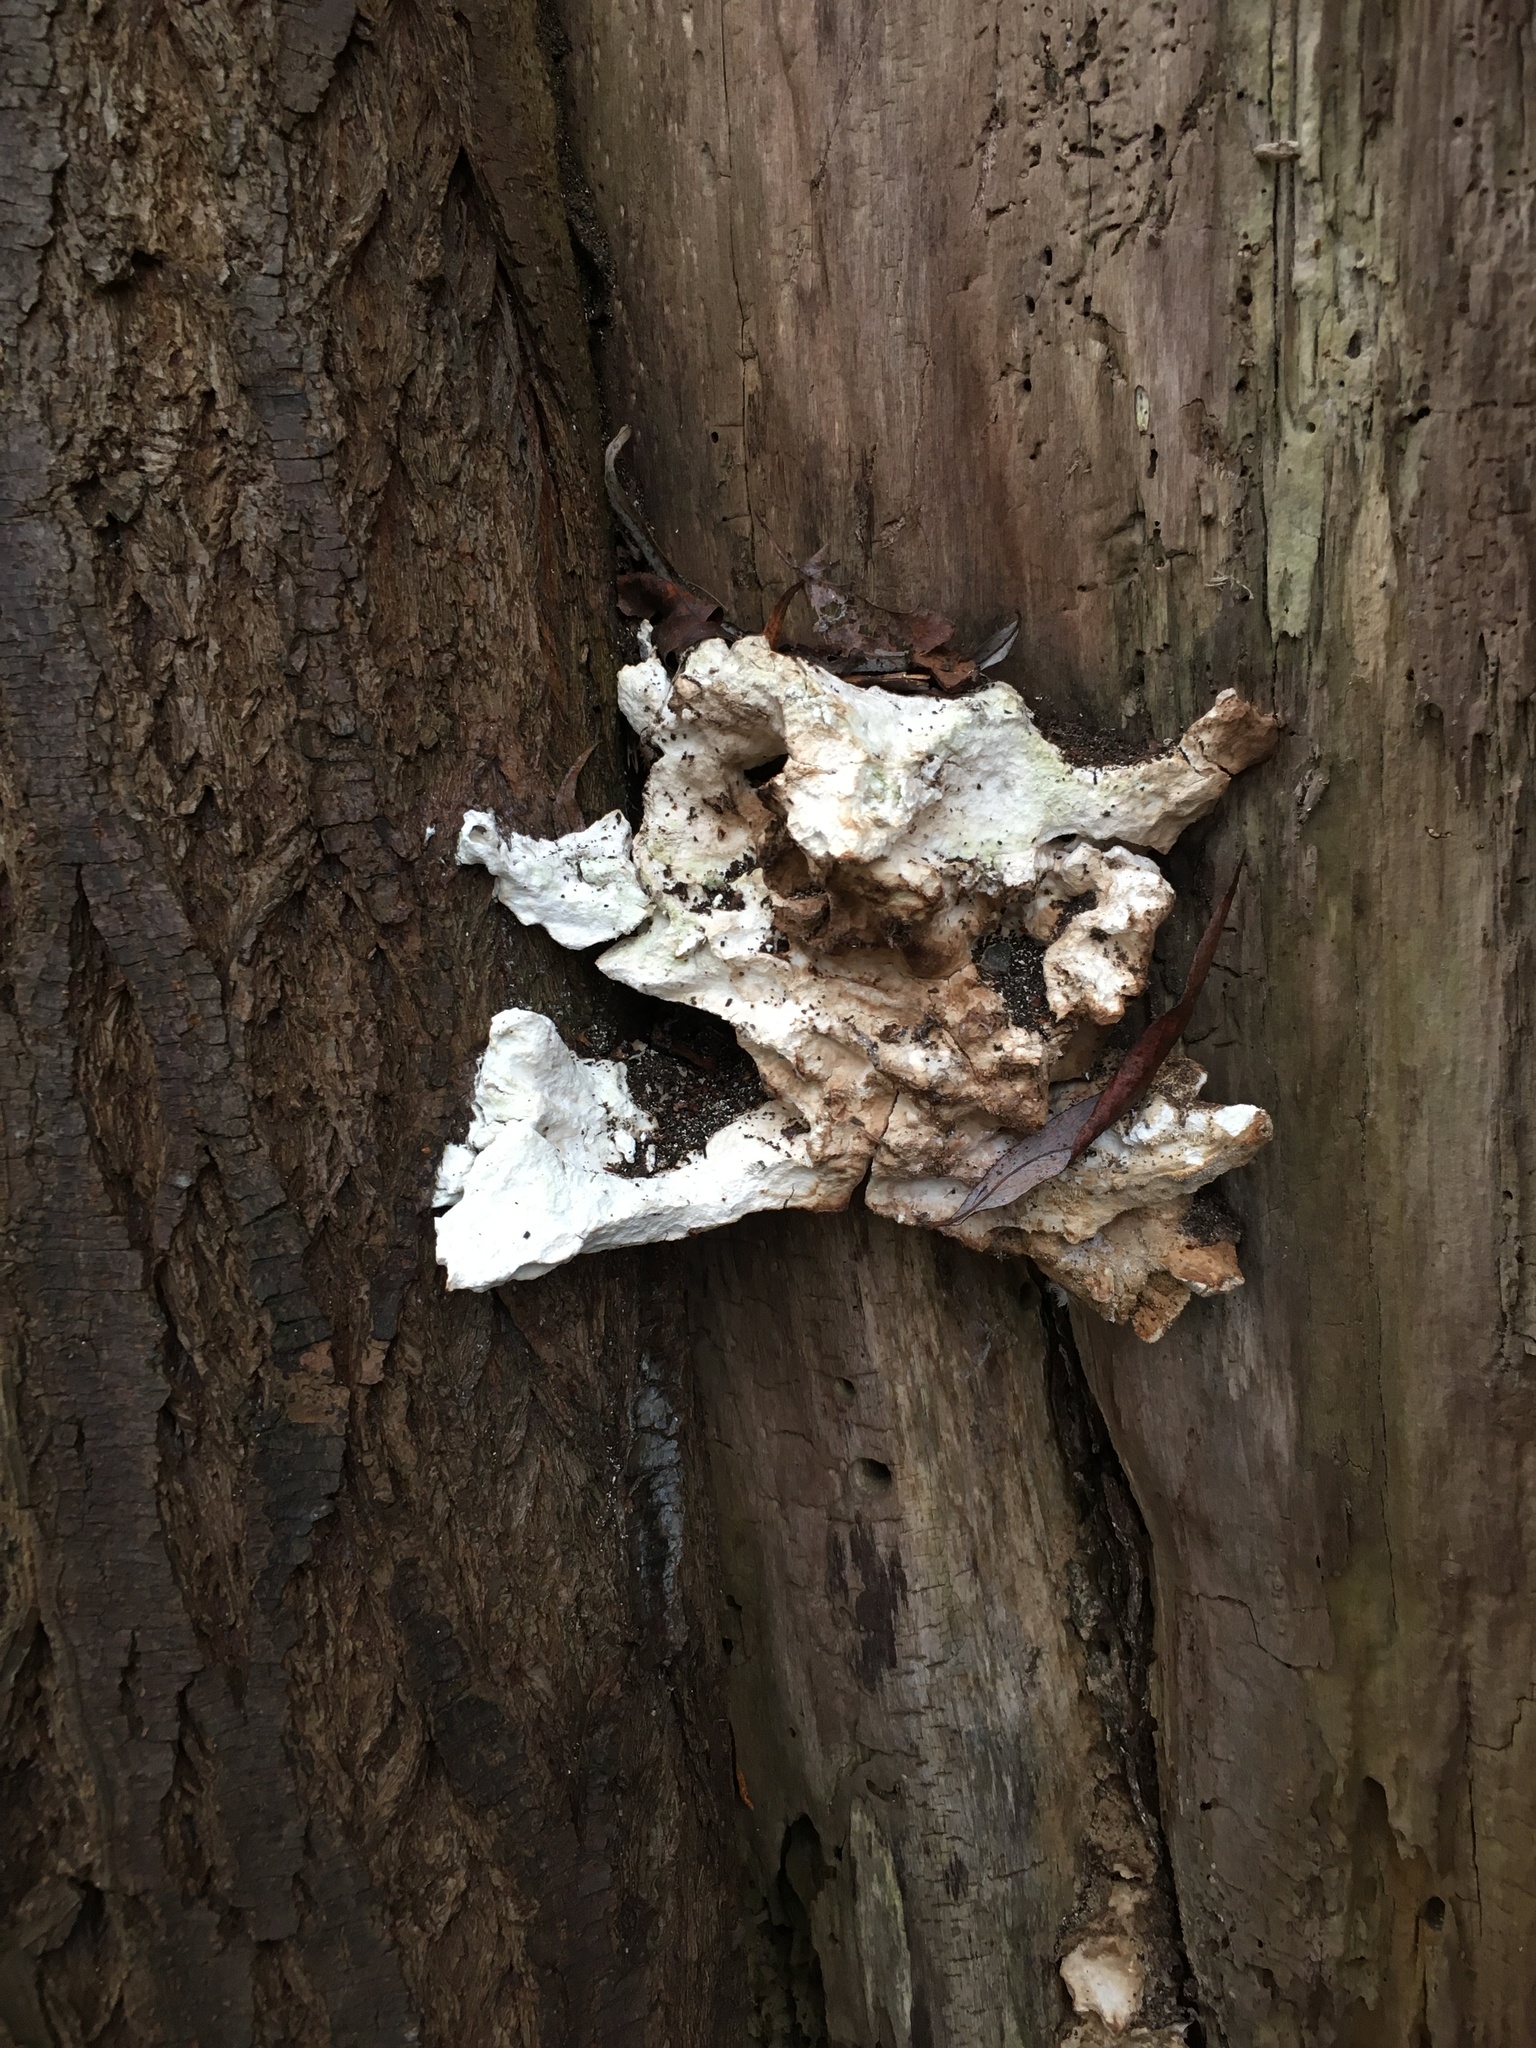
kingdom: Fungi
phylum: Basidiomycota
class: Agaricomycetes
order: Polyporales
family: Laetiporaceae
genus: Laetiporus
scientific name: Laetiporus sulphureus
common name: Chicken of the woods
